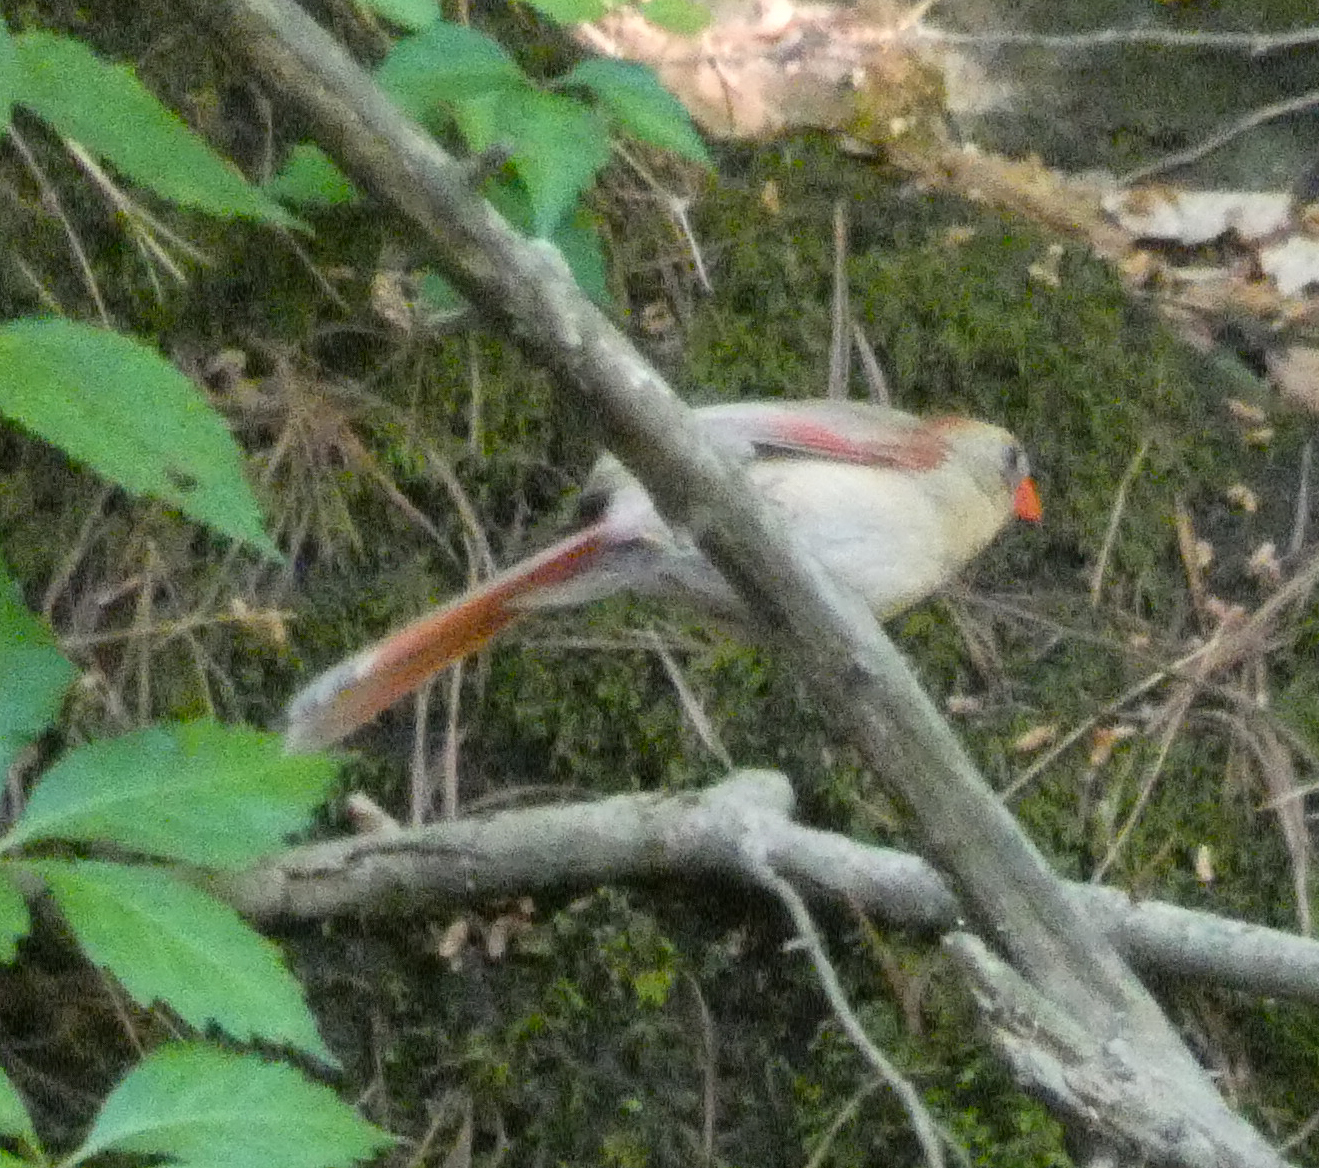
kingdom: Animalia
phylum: Chordata
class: Aves
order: Passeriformes
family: Cardinalidae
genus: Cardinalis
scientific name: Cardinalis cardinalis
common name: Northern cardinal
